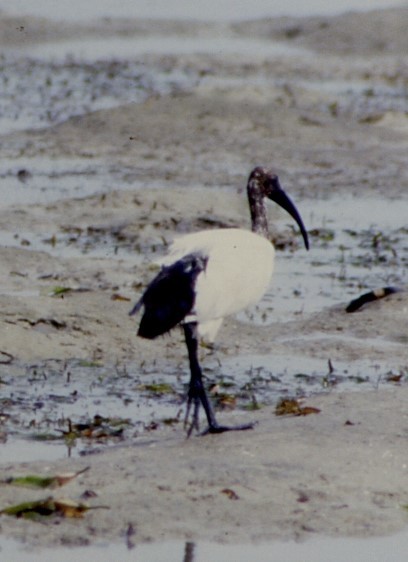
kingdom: Animalia
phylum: Chordata
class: Aves
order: Pelecaniformes
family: Threskiornithidae
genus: Threskiornis
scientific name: Threskiornis aethiopicus
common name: Sacred ibis
